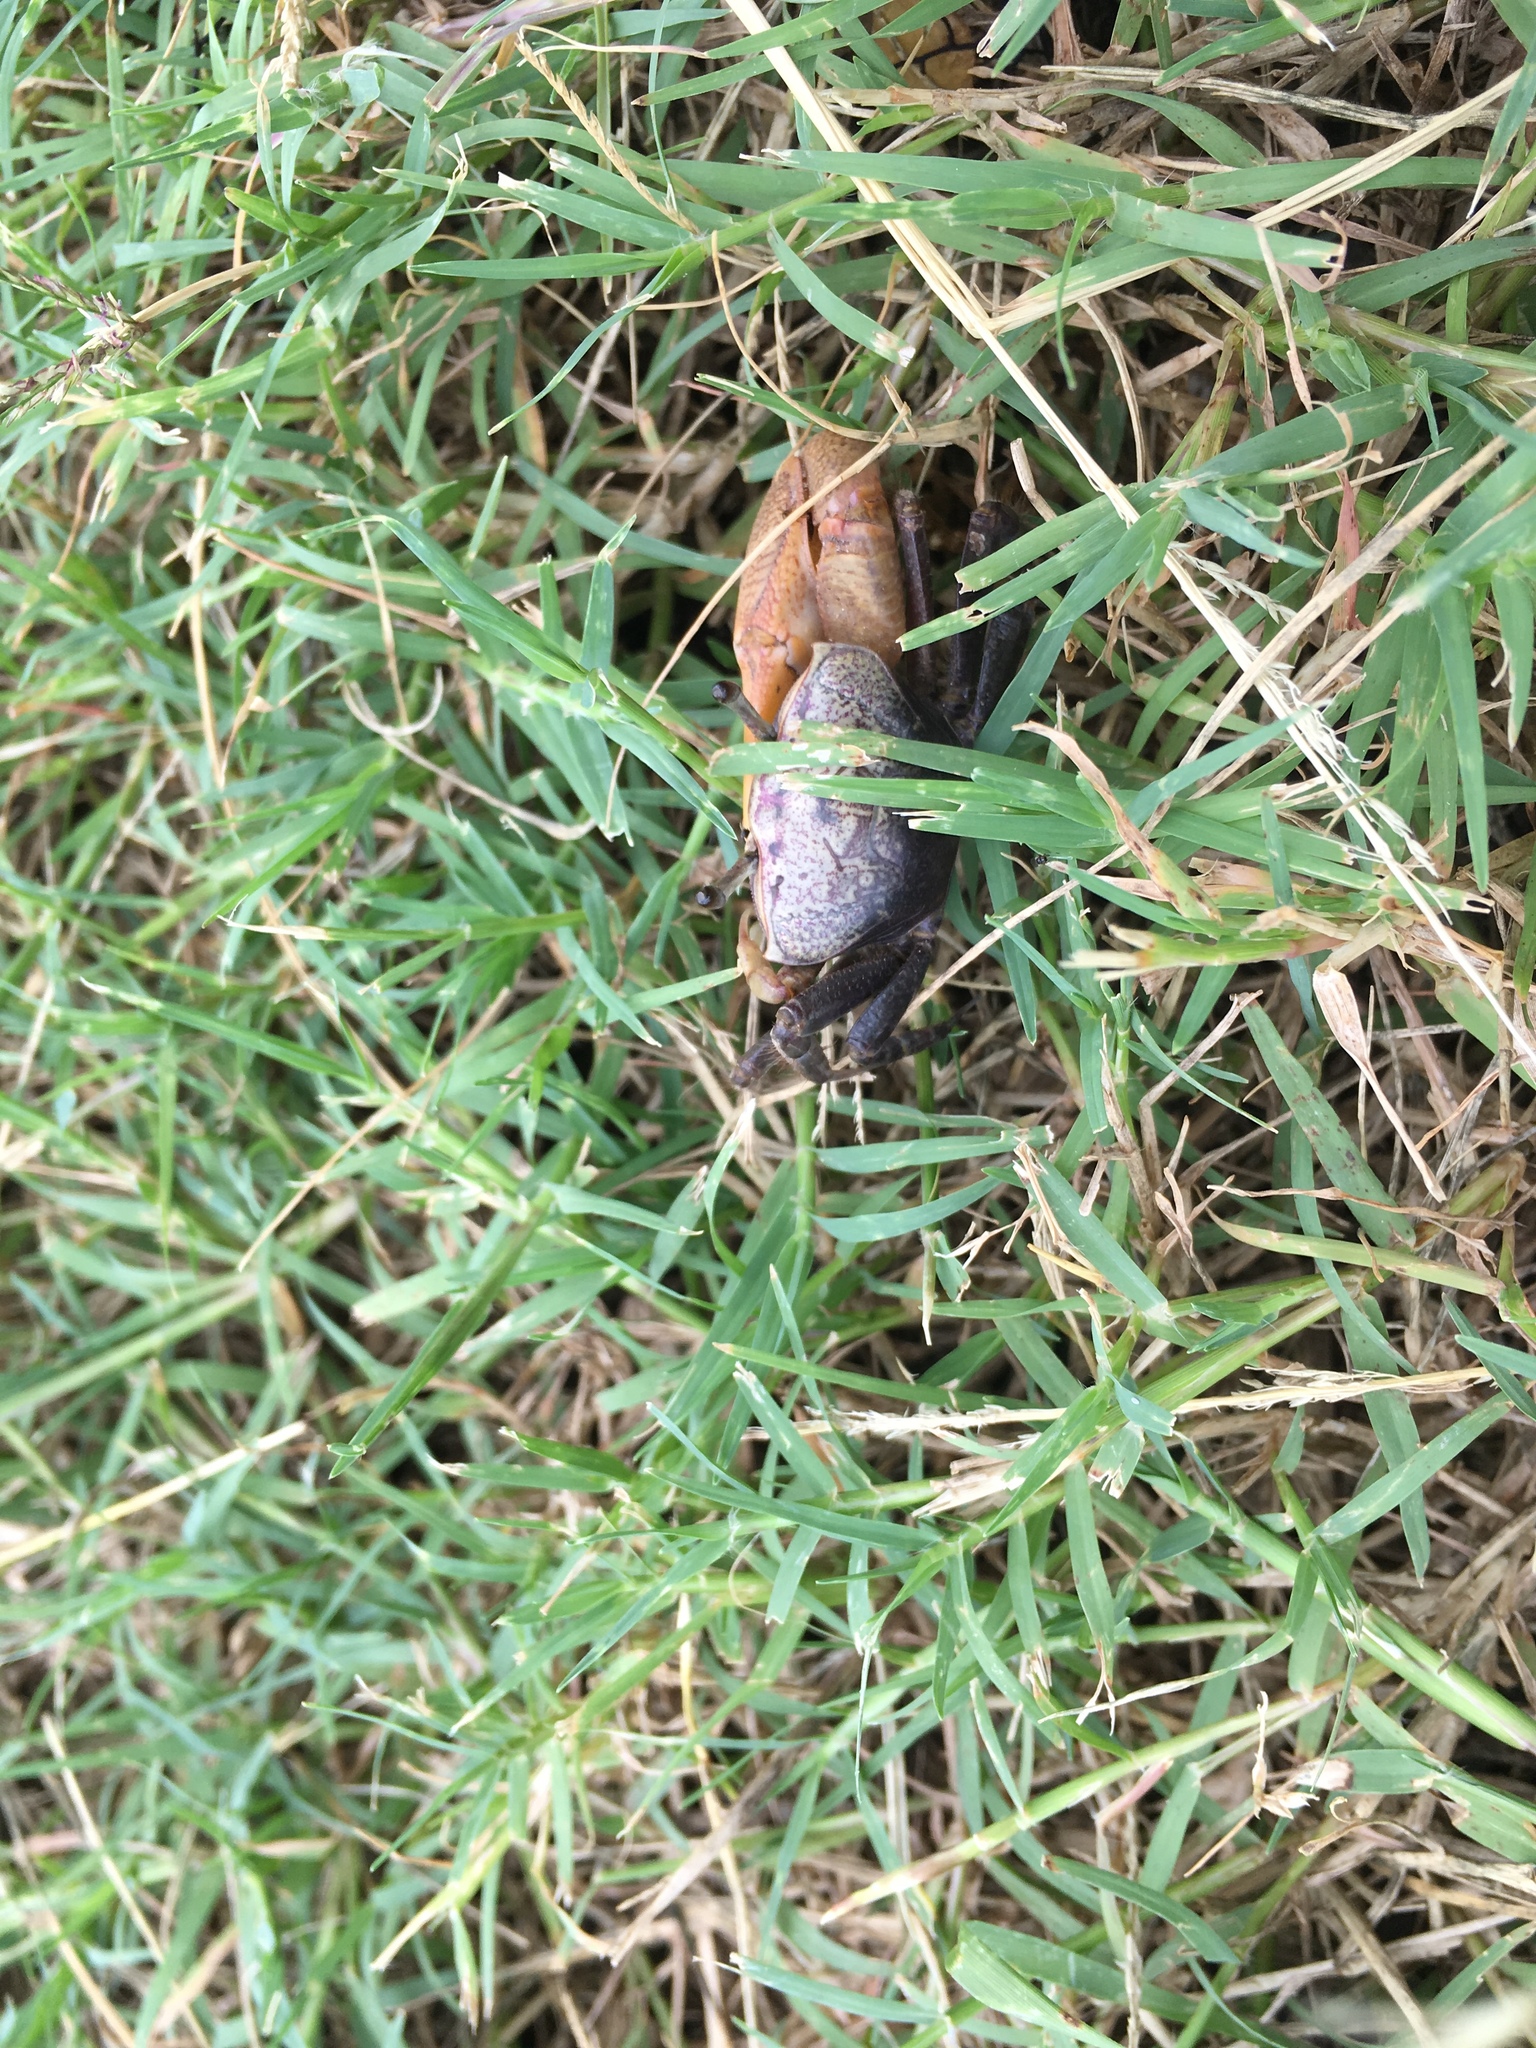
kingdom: Animalia
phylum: Arthropoda
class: Malacostraca
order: Decapoda
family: Ocypodidae
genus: Leptuca
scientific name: Leptuca pugilator
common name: Atlantic sand fiddler crab
